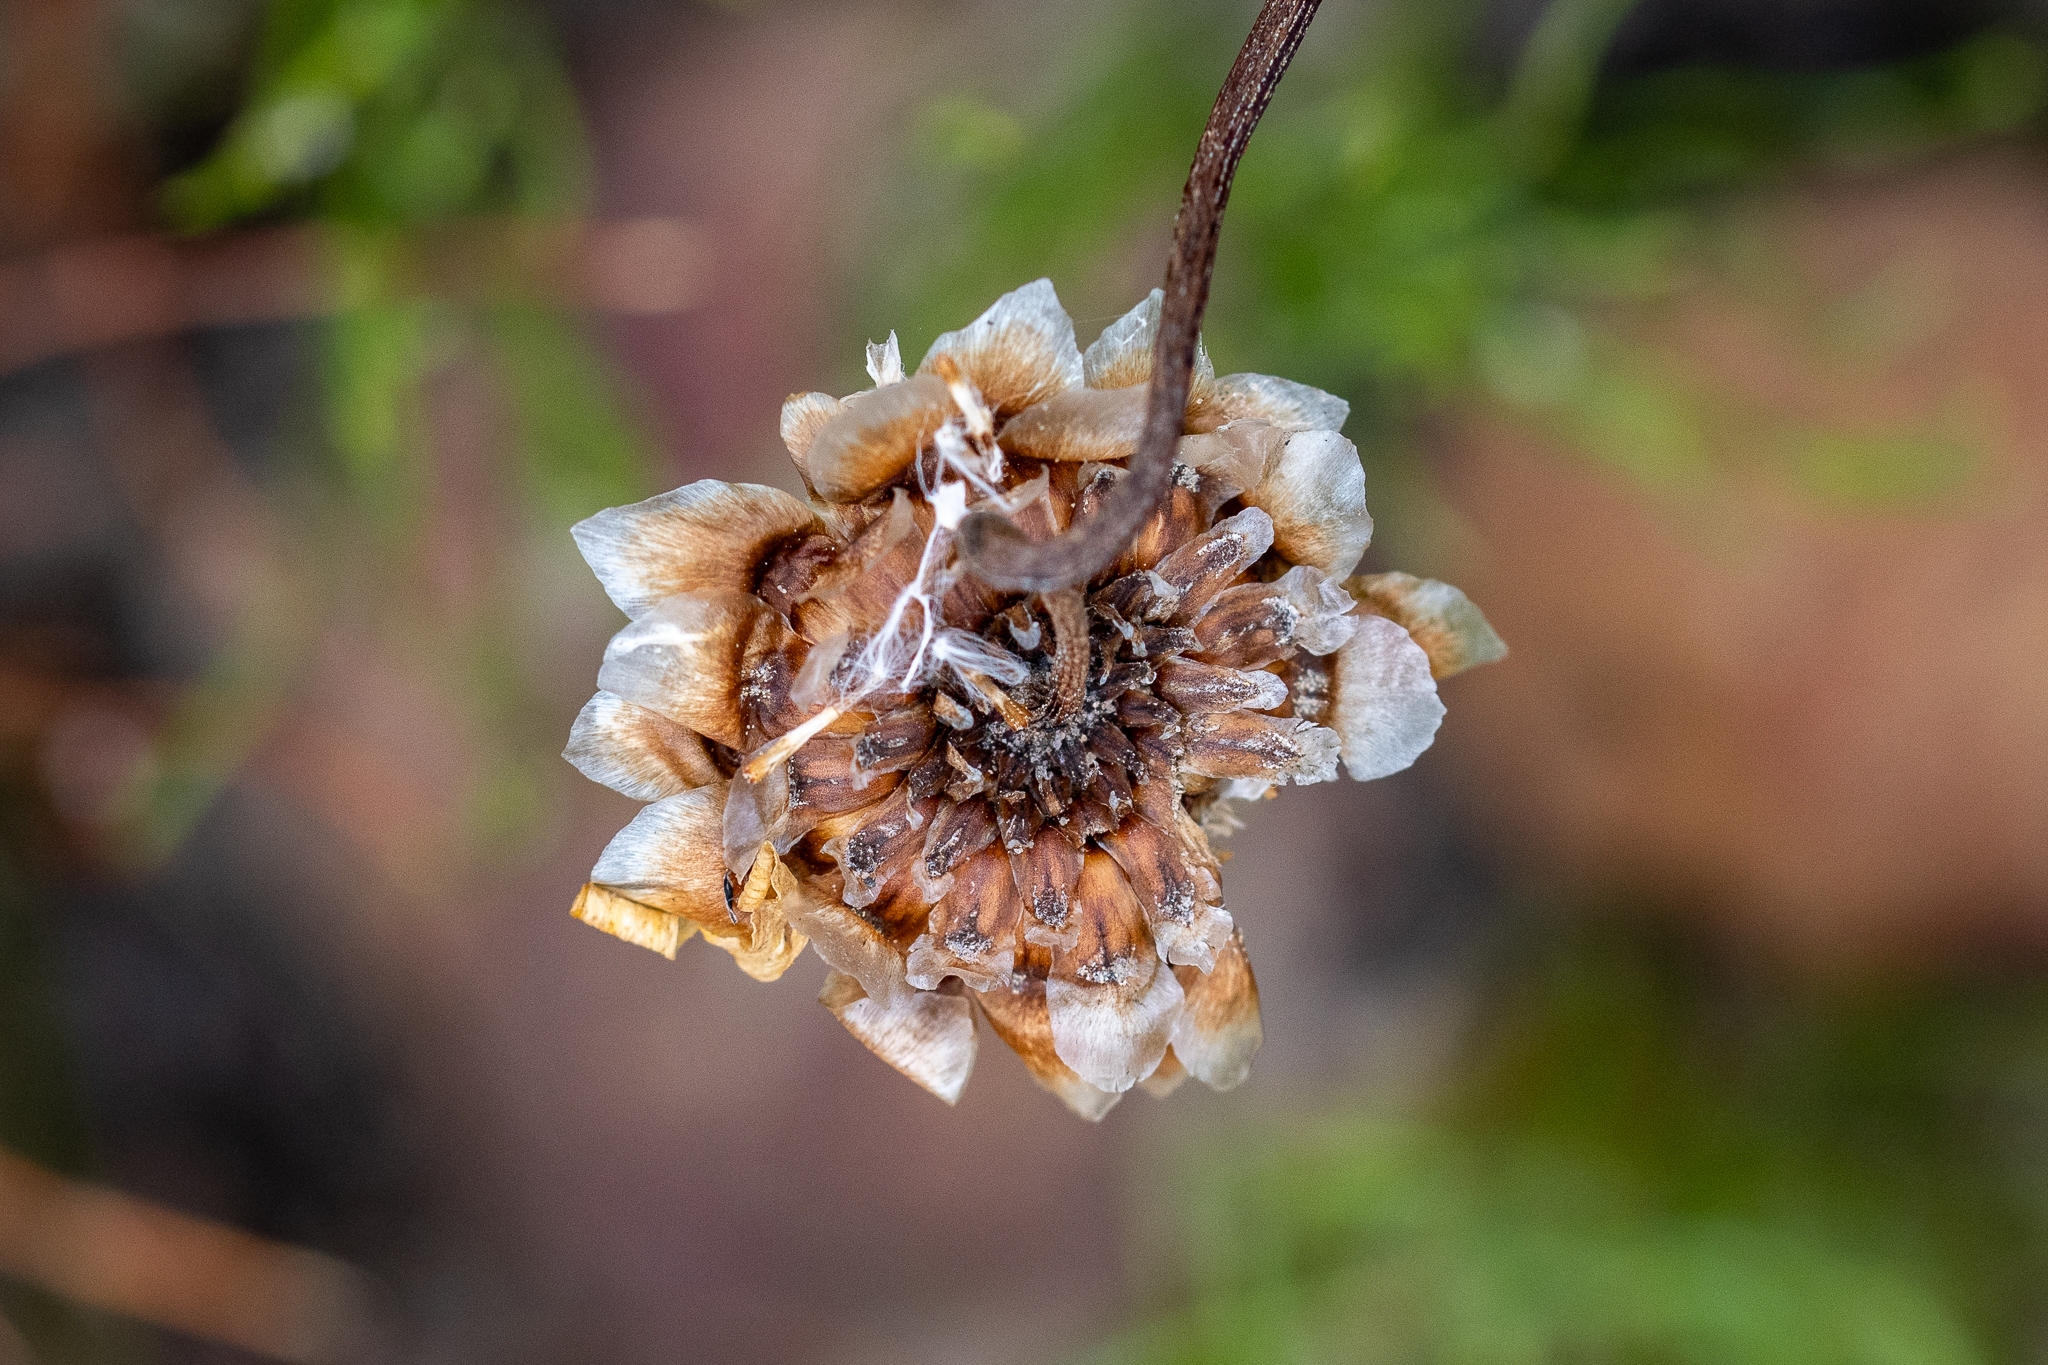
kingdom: Plantae
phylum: Tracheophyta
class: Magnoliopsida
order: Asterales
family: Asteraceae
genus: Ursinia
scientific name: Ursinia paleacea
